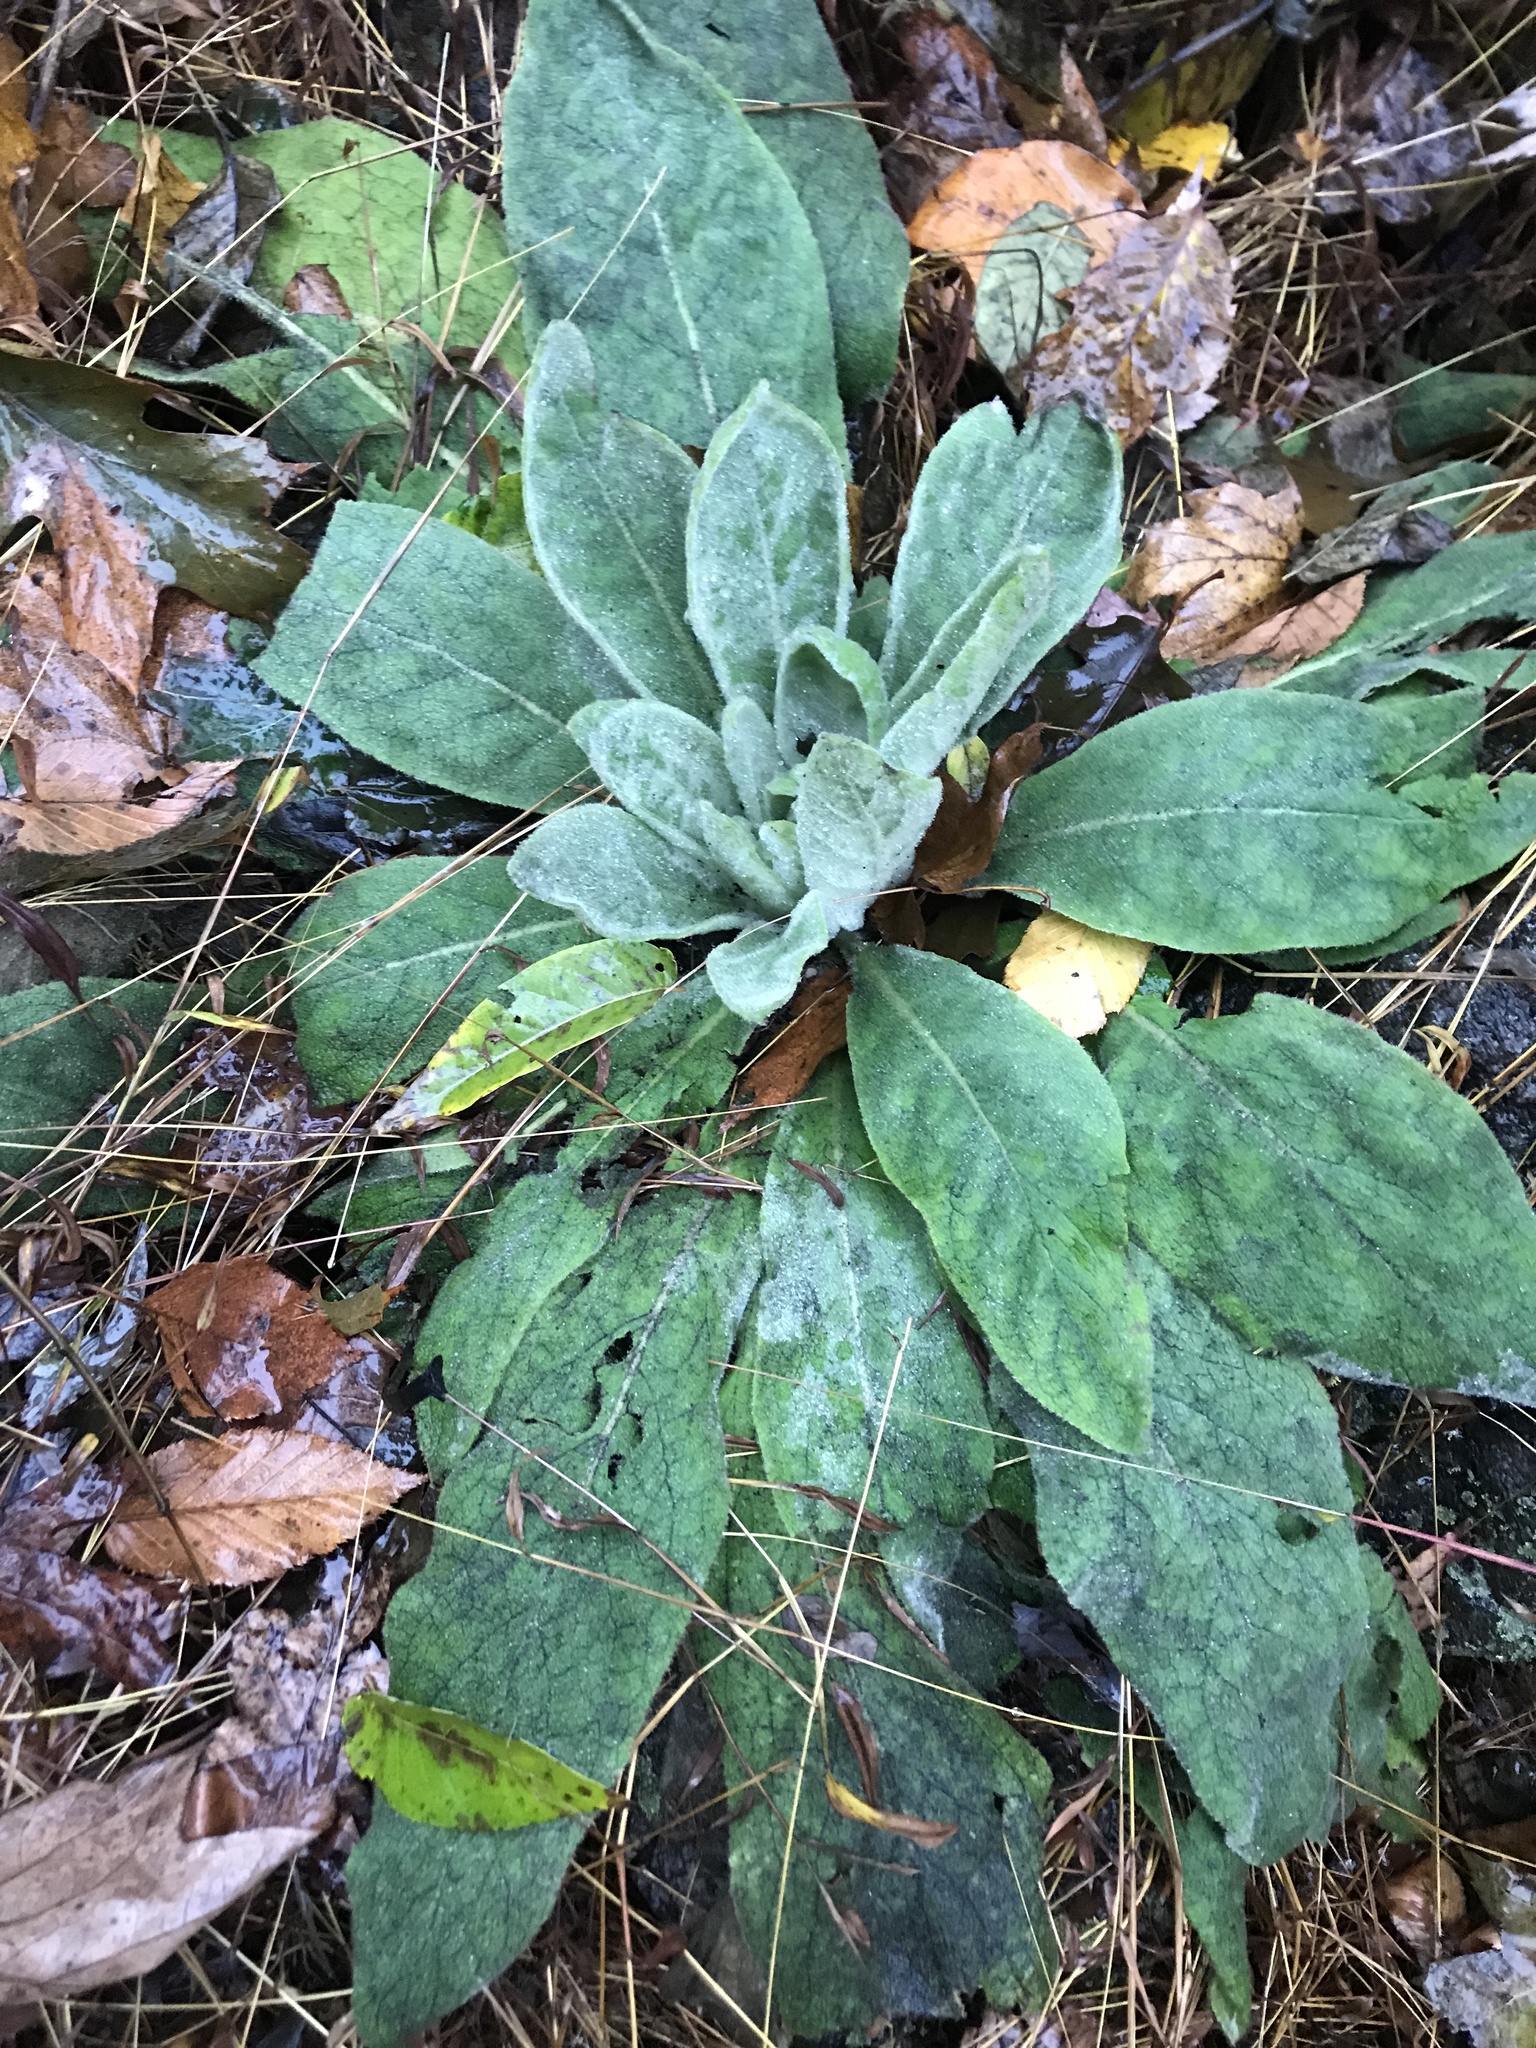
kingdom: Plantae
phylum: Tracheophyta
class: Magnoliopsida
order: Lamiales
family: Scrophulariaceae
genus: Verbascum
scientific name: Verbascum thapsus
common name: Common mullein
